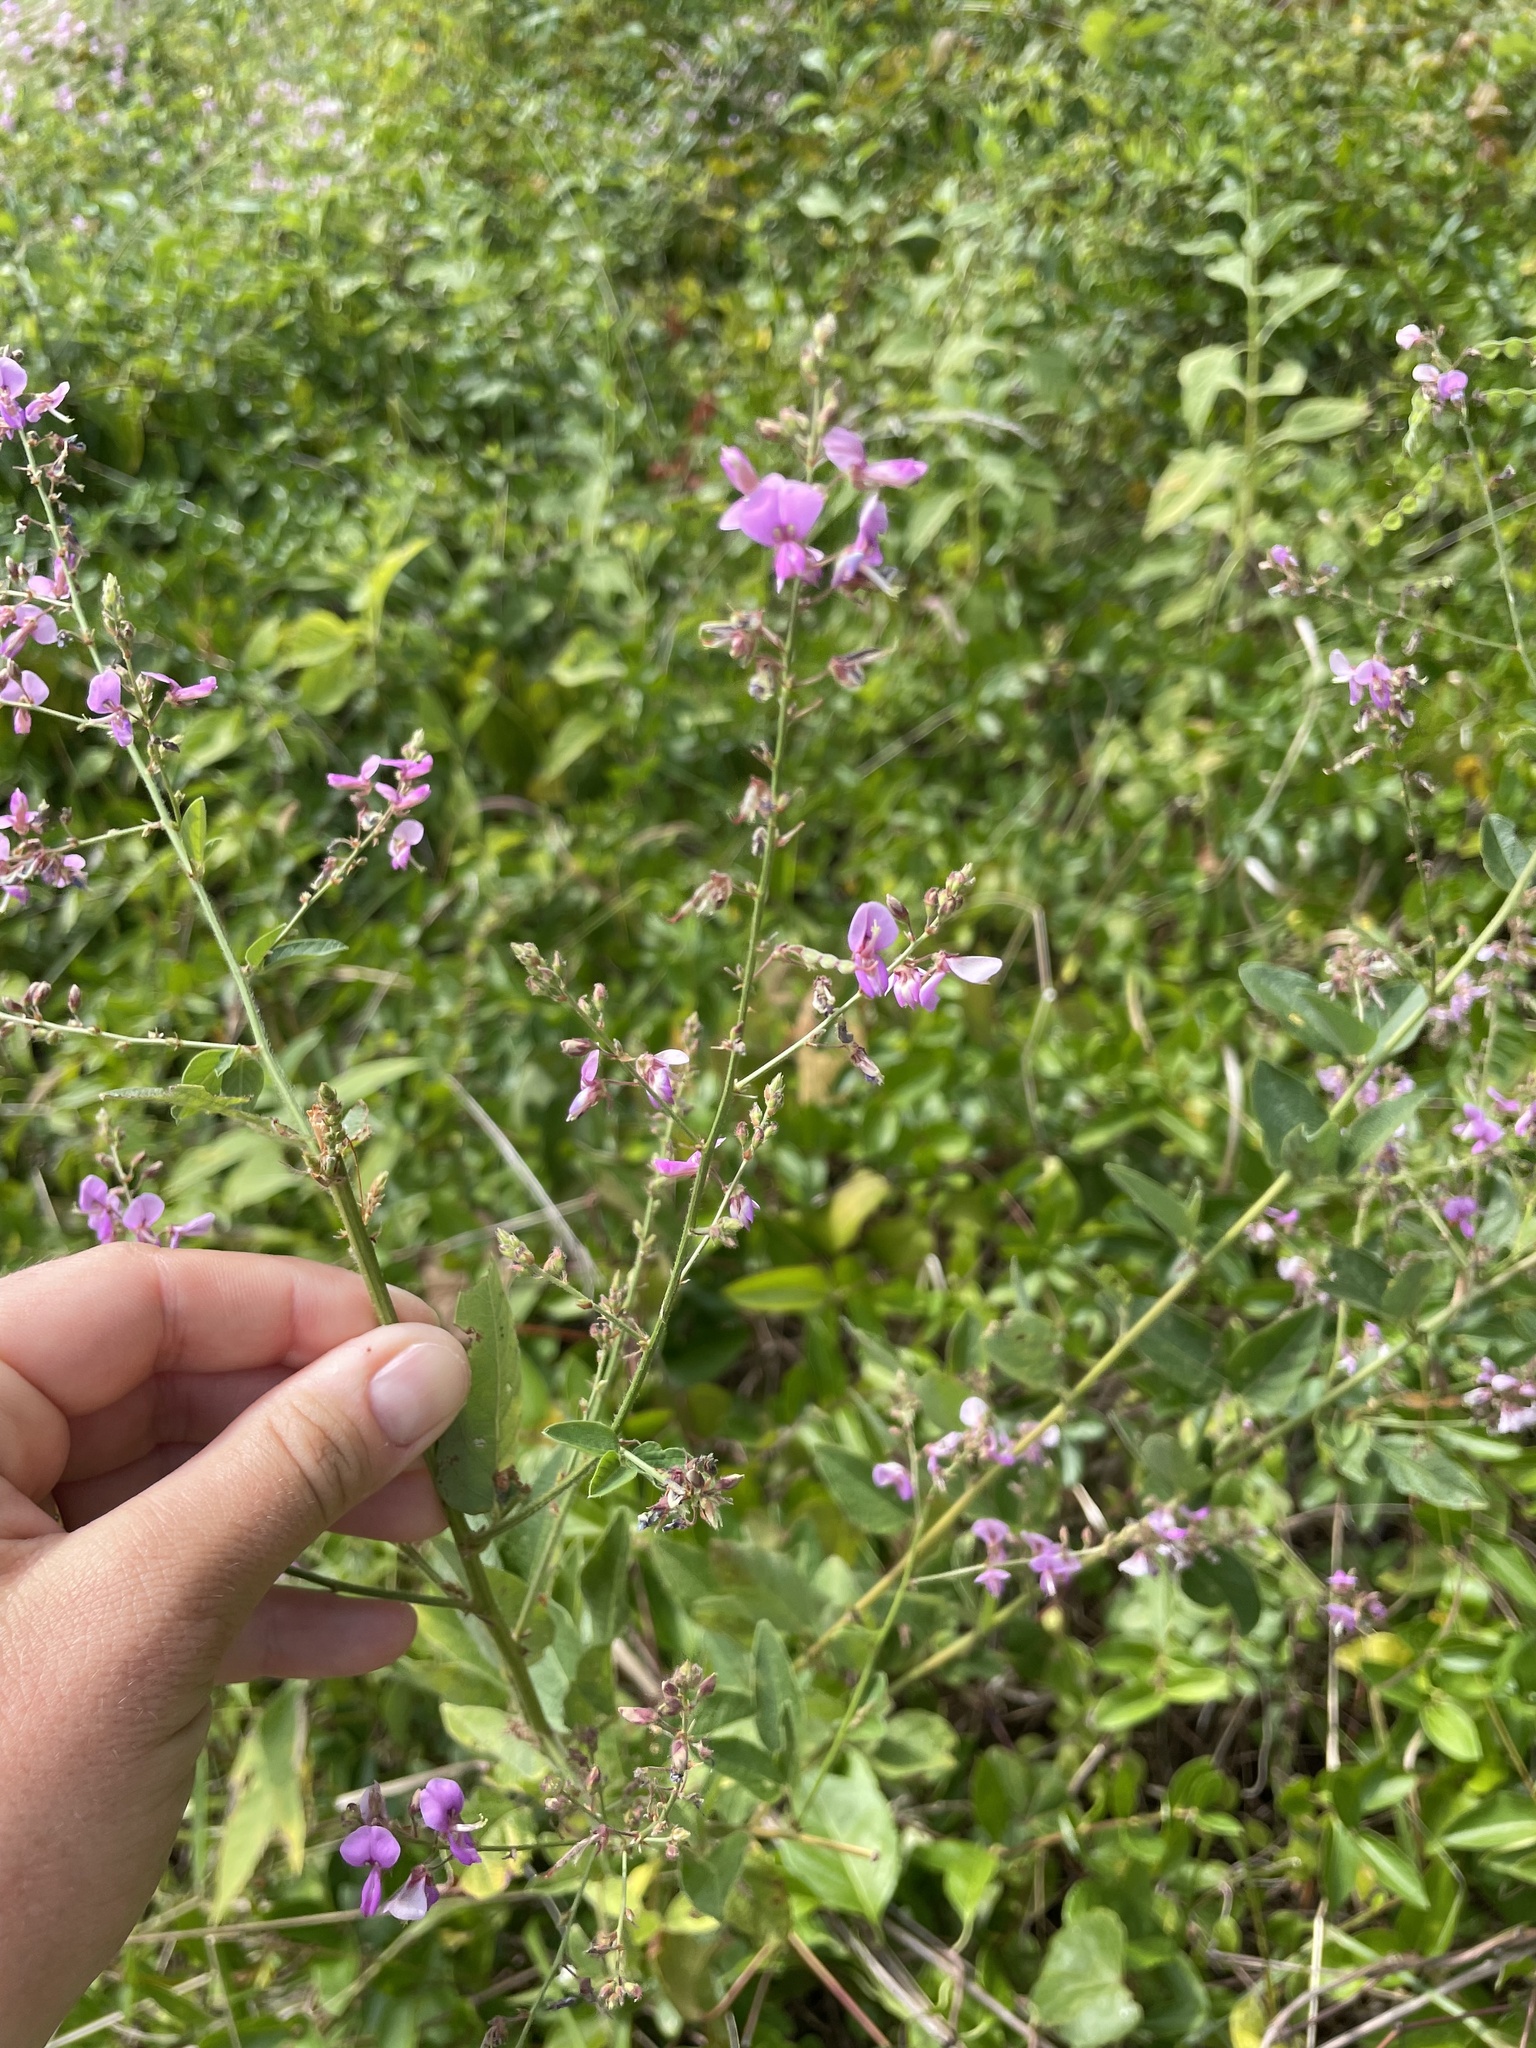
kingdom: Plantae
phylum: Tracheophyta
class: Magnoliopsida
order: Fabales
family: Fabaceae
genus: Desmodium
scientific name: Desmodium glabellum
